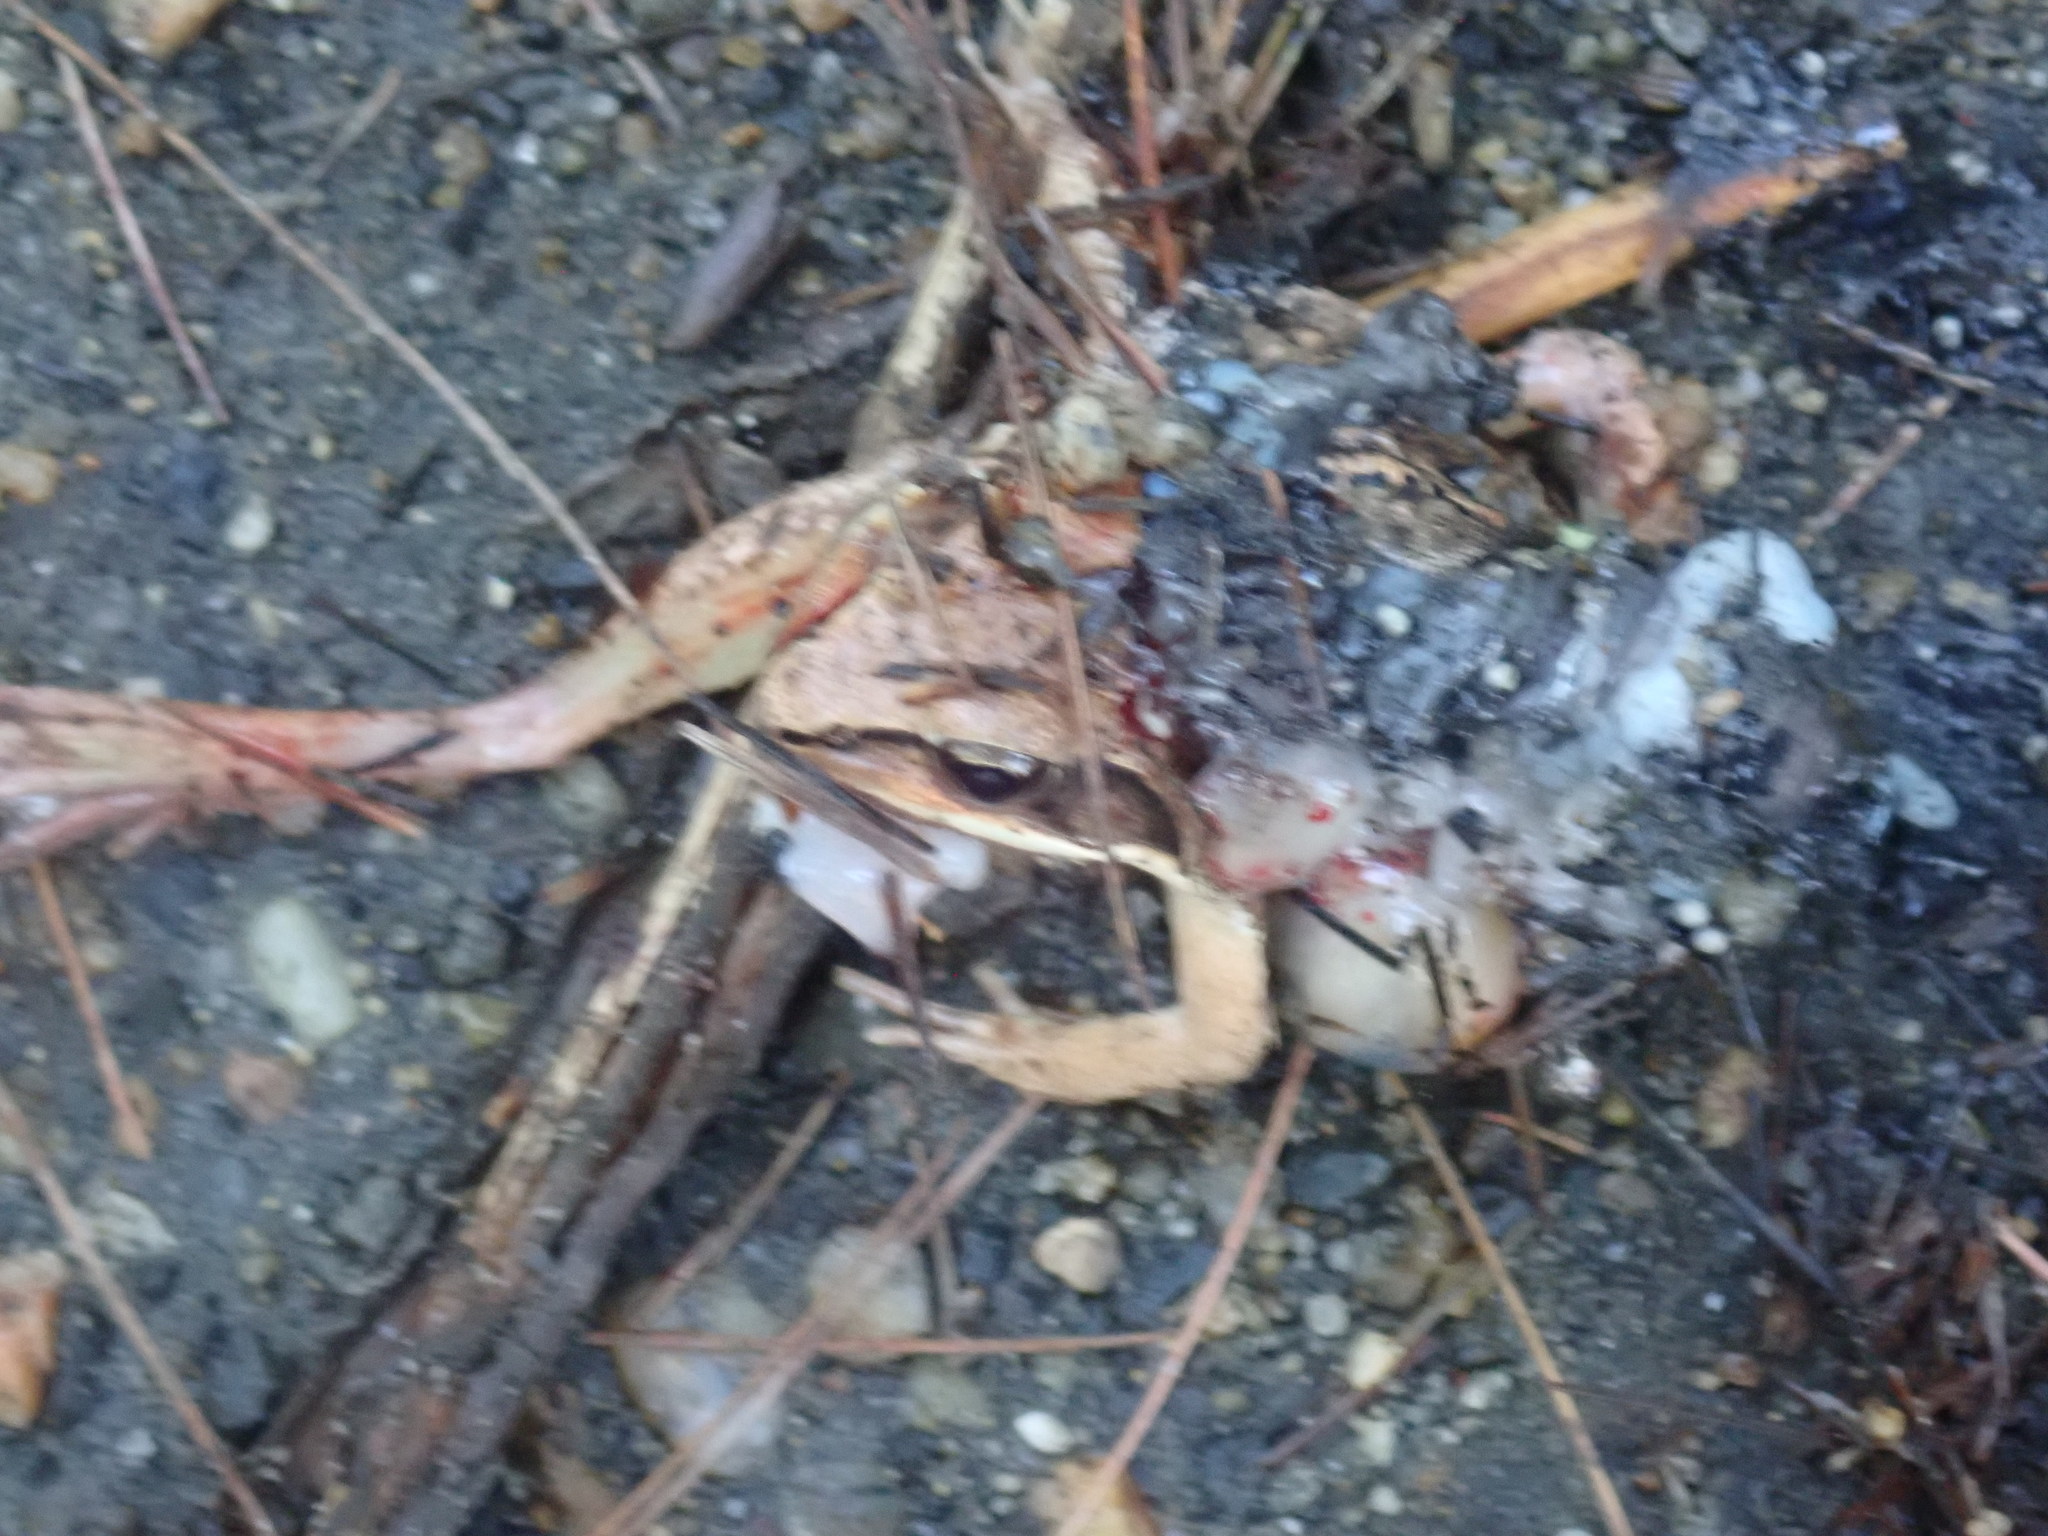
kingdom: Animalia
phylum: Chordata
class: Amphibia
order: Anura
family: Ranidae
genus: Lithobates
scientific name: Lithobates sylvaticus
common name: Wood frog
